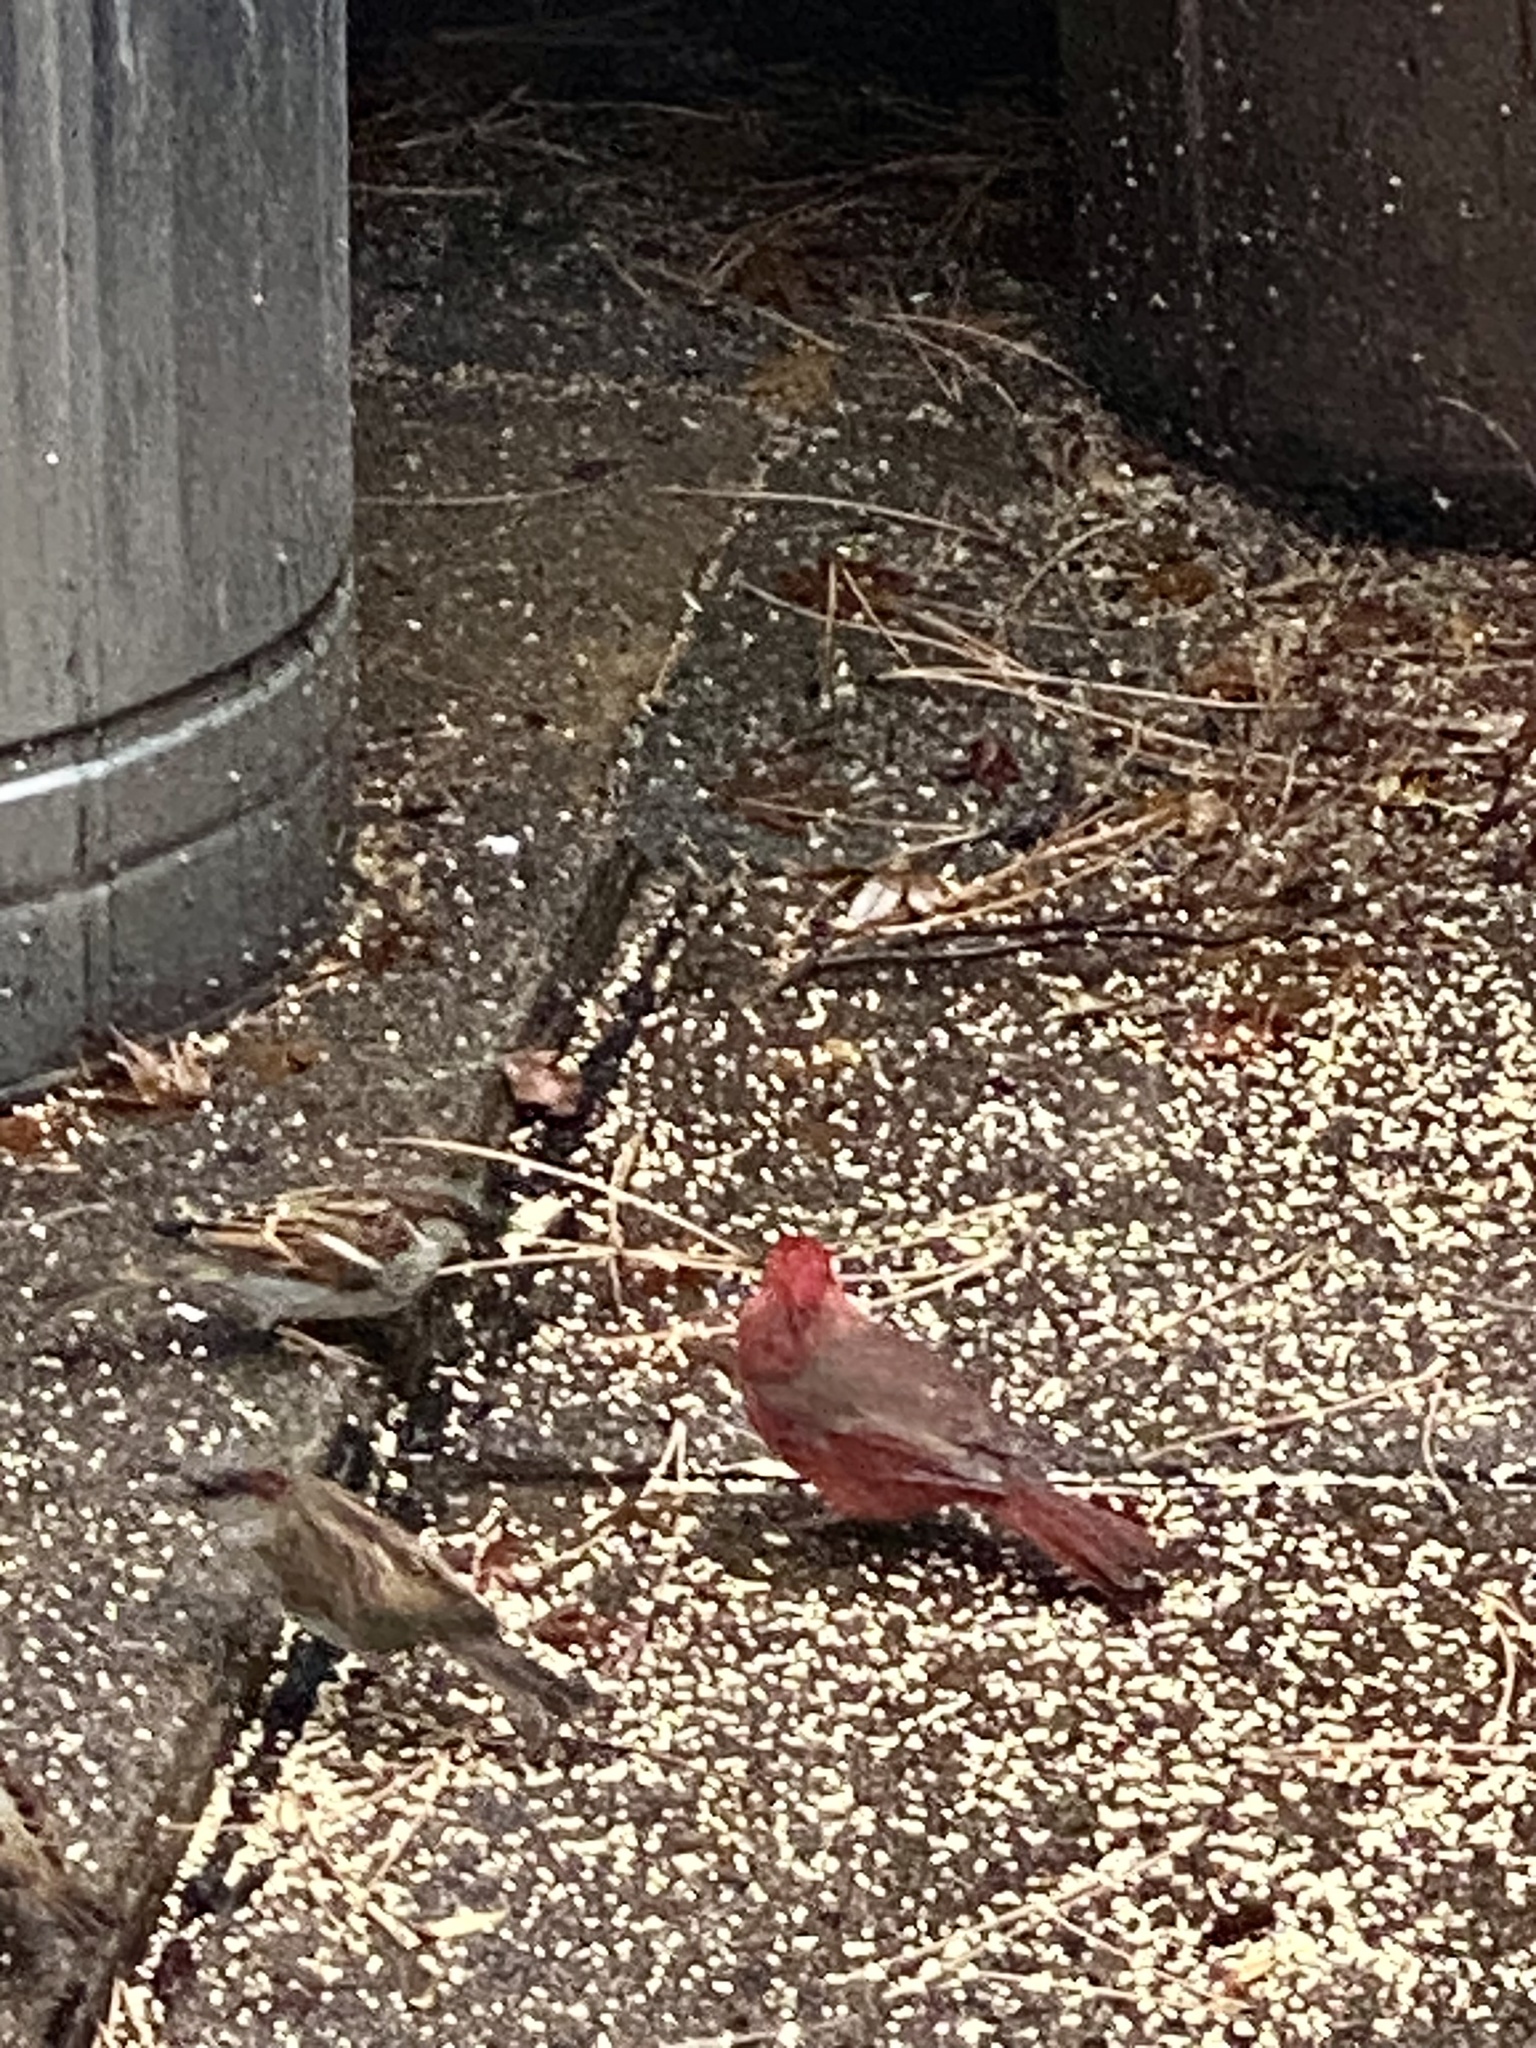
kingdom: Animalia
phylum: Chordata
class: Aves
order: Passeriformes
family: Cardinalidae
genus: Cardinalis
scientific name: Cardinalis cardinalis
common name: Northern cardinal
